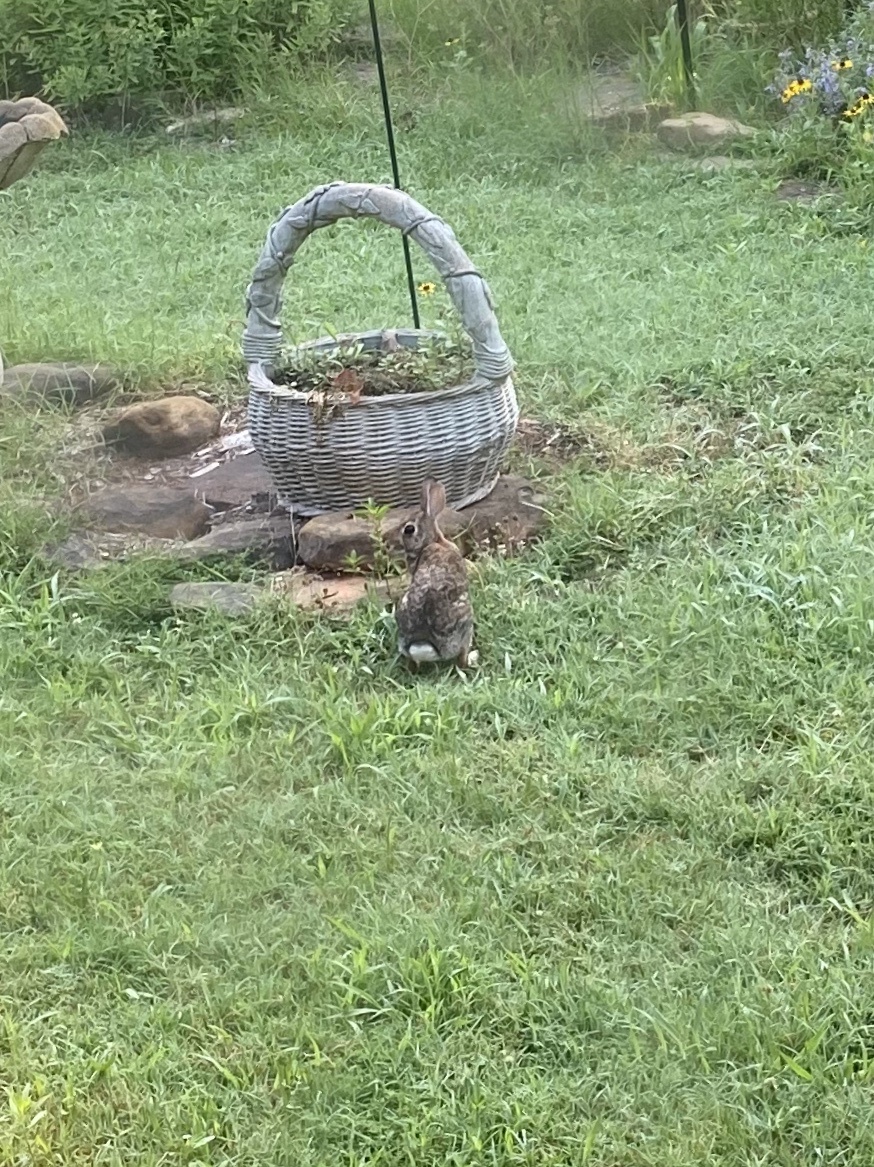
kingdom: Animalia
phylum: Chordata
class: Mammalia
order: Lagomorpha
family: Leporidae
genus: Sylvilagus
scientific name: Sylvilagus floridanus
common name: Eastern cottontail
